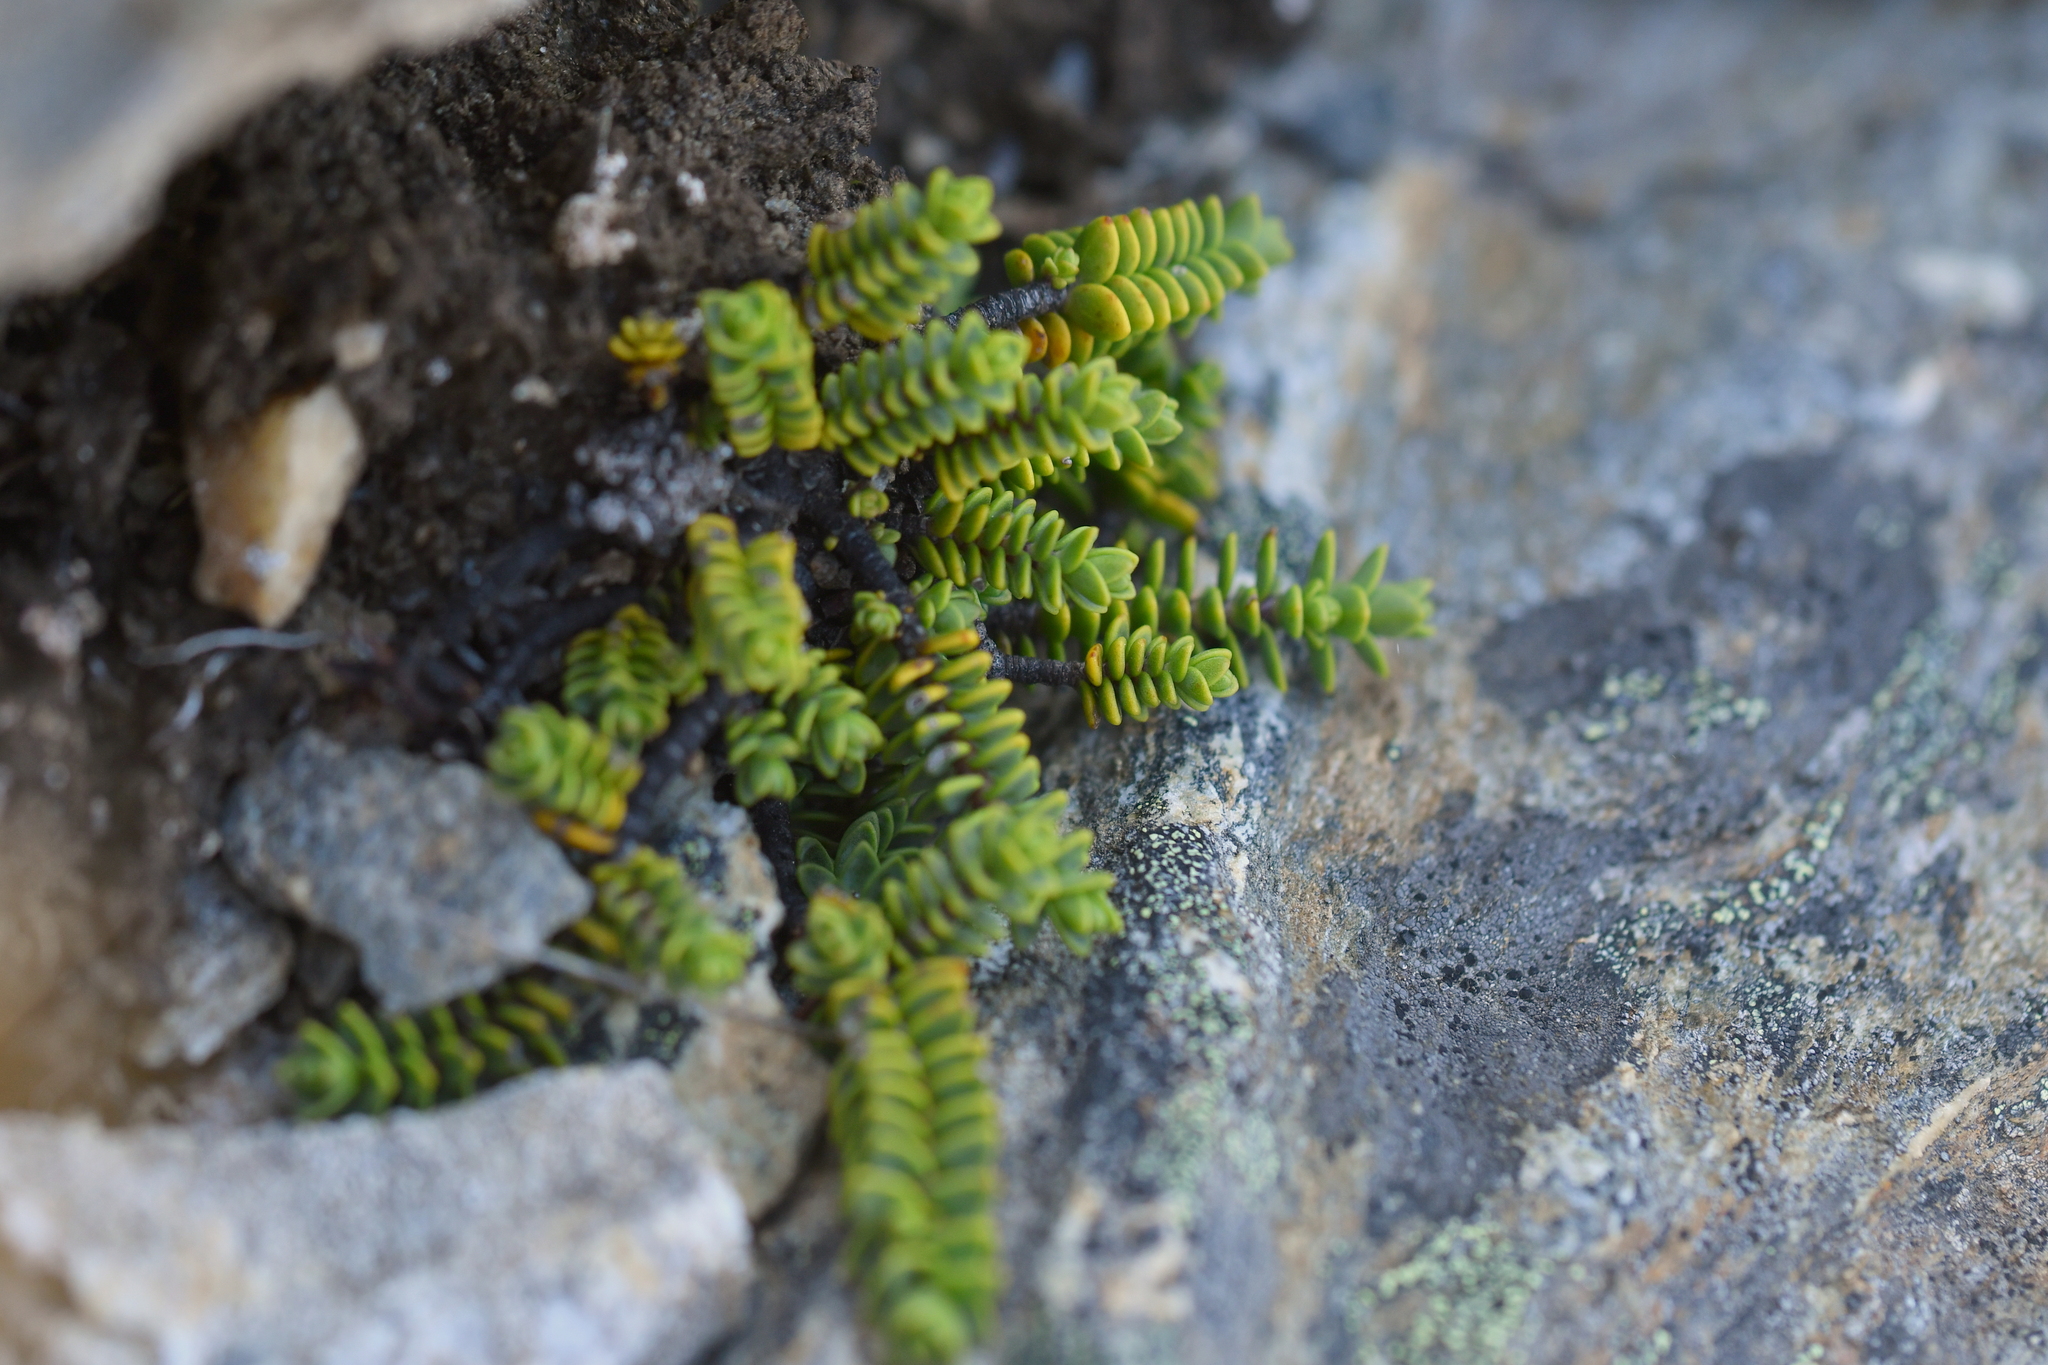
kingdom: Plantae
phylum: Tracheophyta
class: Magnoliopsida
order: Lamiales
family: Plantaginaceae
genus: Veronica
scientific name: Veronica buchananii
